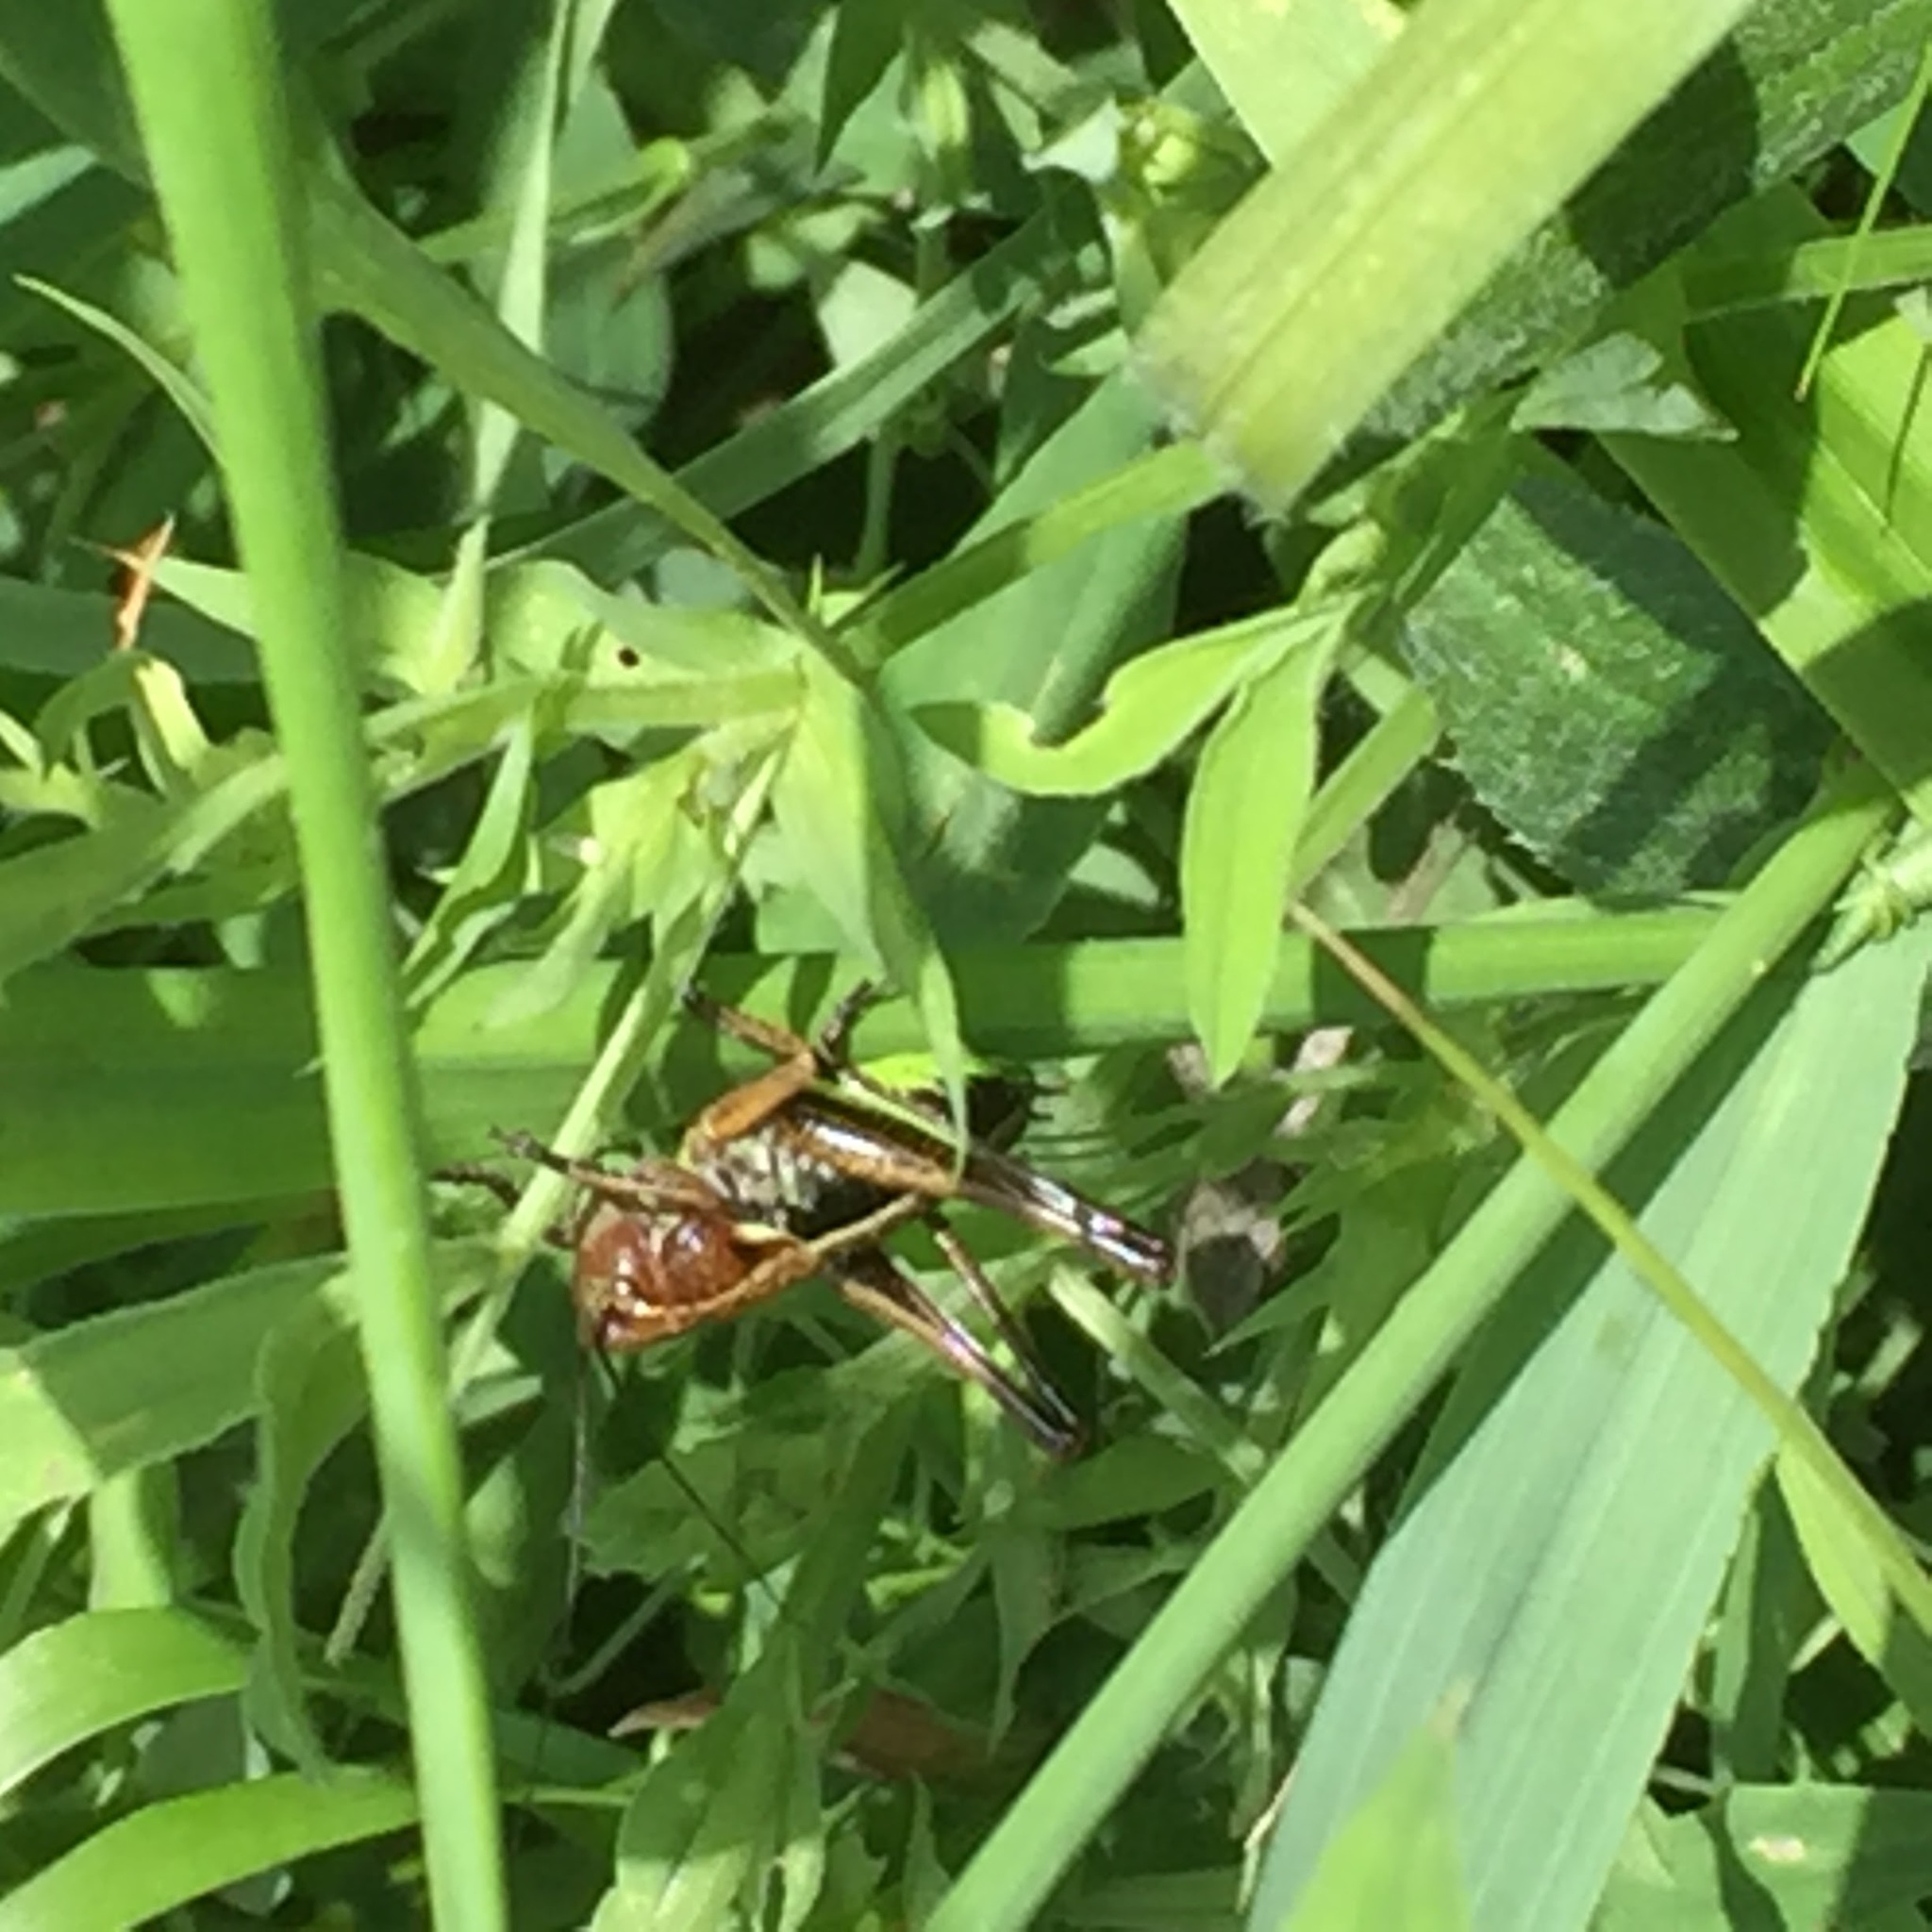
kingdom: Animalia
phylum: Arthropoda
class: Insecta
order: Orthoptera
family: Tettigoniidae
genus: Roeseliana
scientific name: Roeseliana roeselii
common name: Roesel's bush cricket
